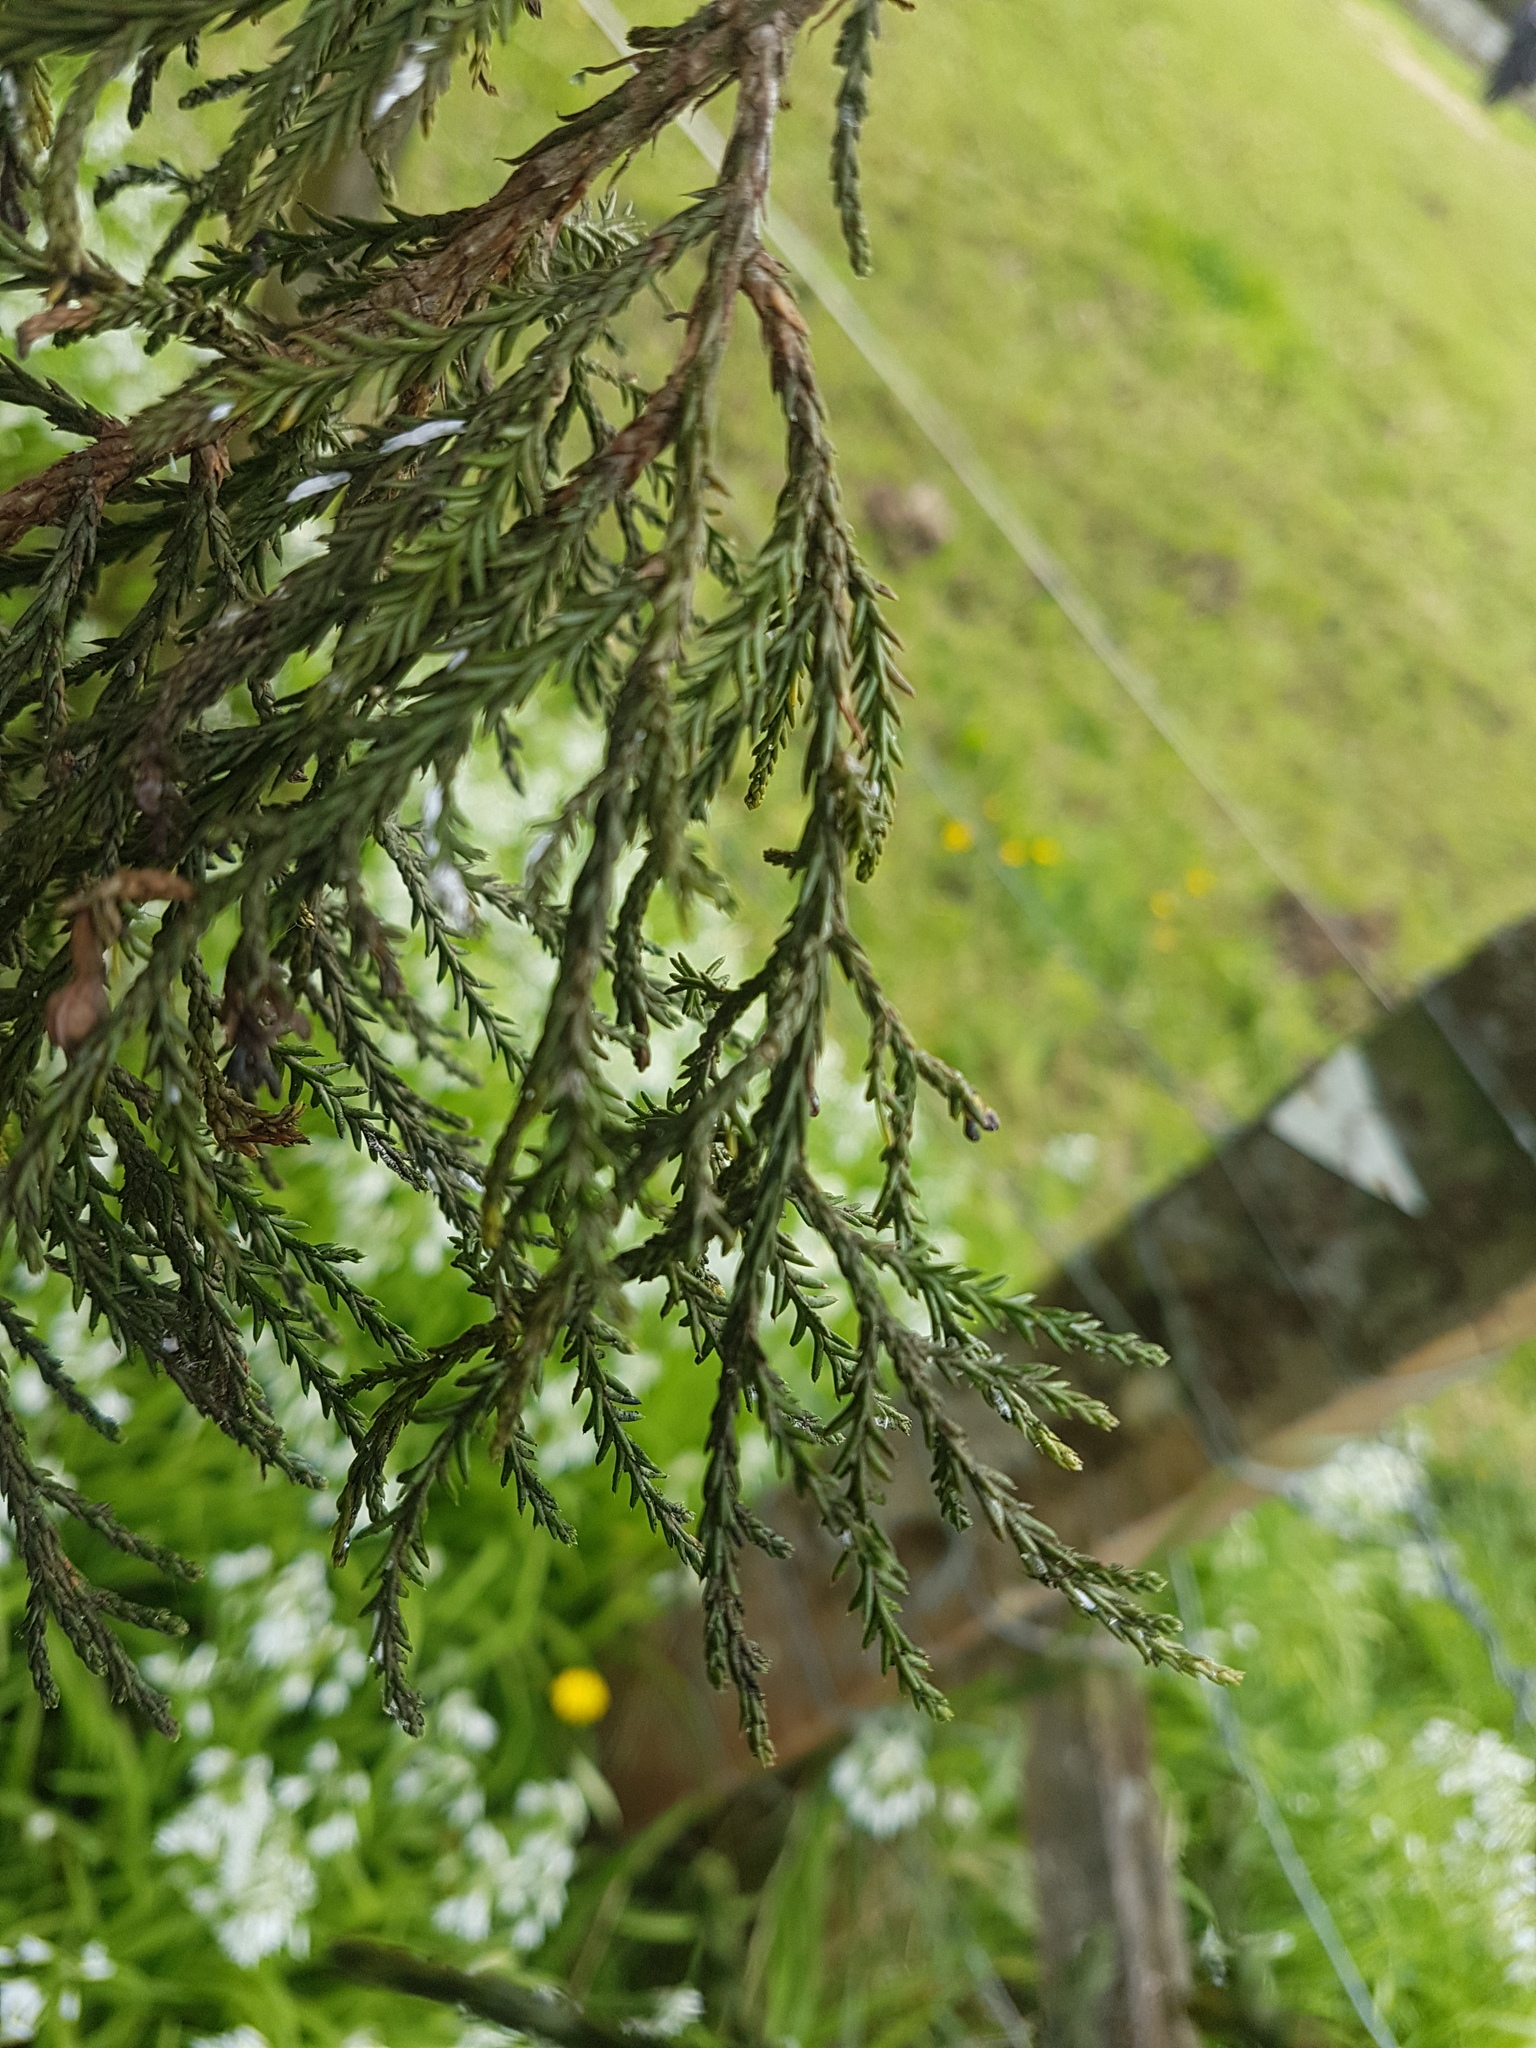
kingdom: Plantae
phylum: Tracheophyta
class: Pinopsida
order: Pinales
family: Podocarpaceae
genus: Dacrycarpus
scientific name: Dacrycarpus dacrydioides
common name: White pine
